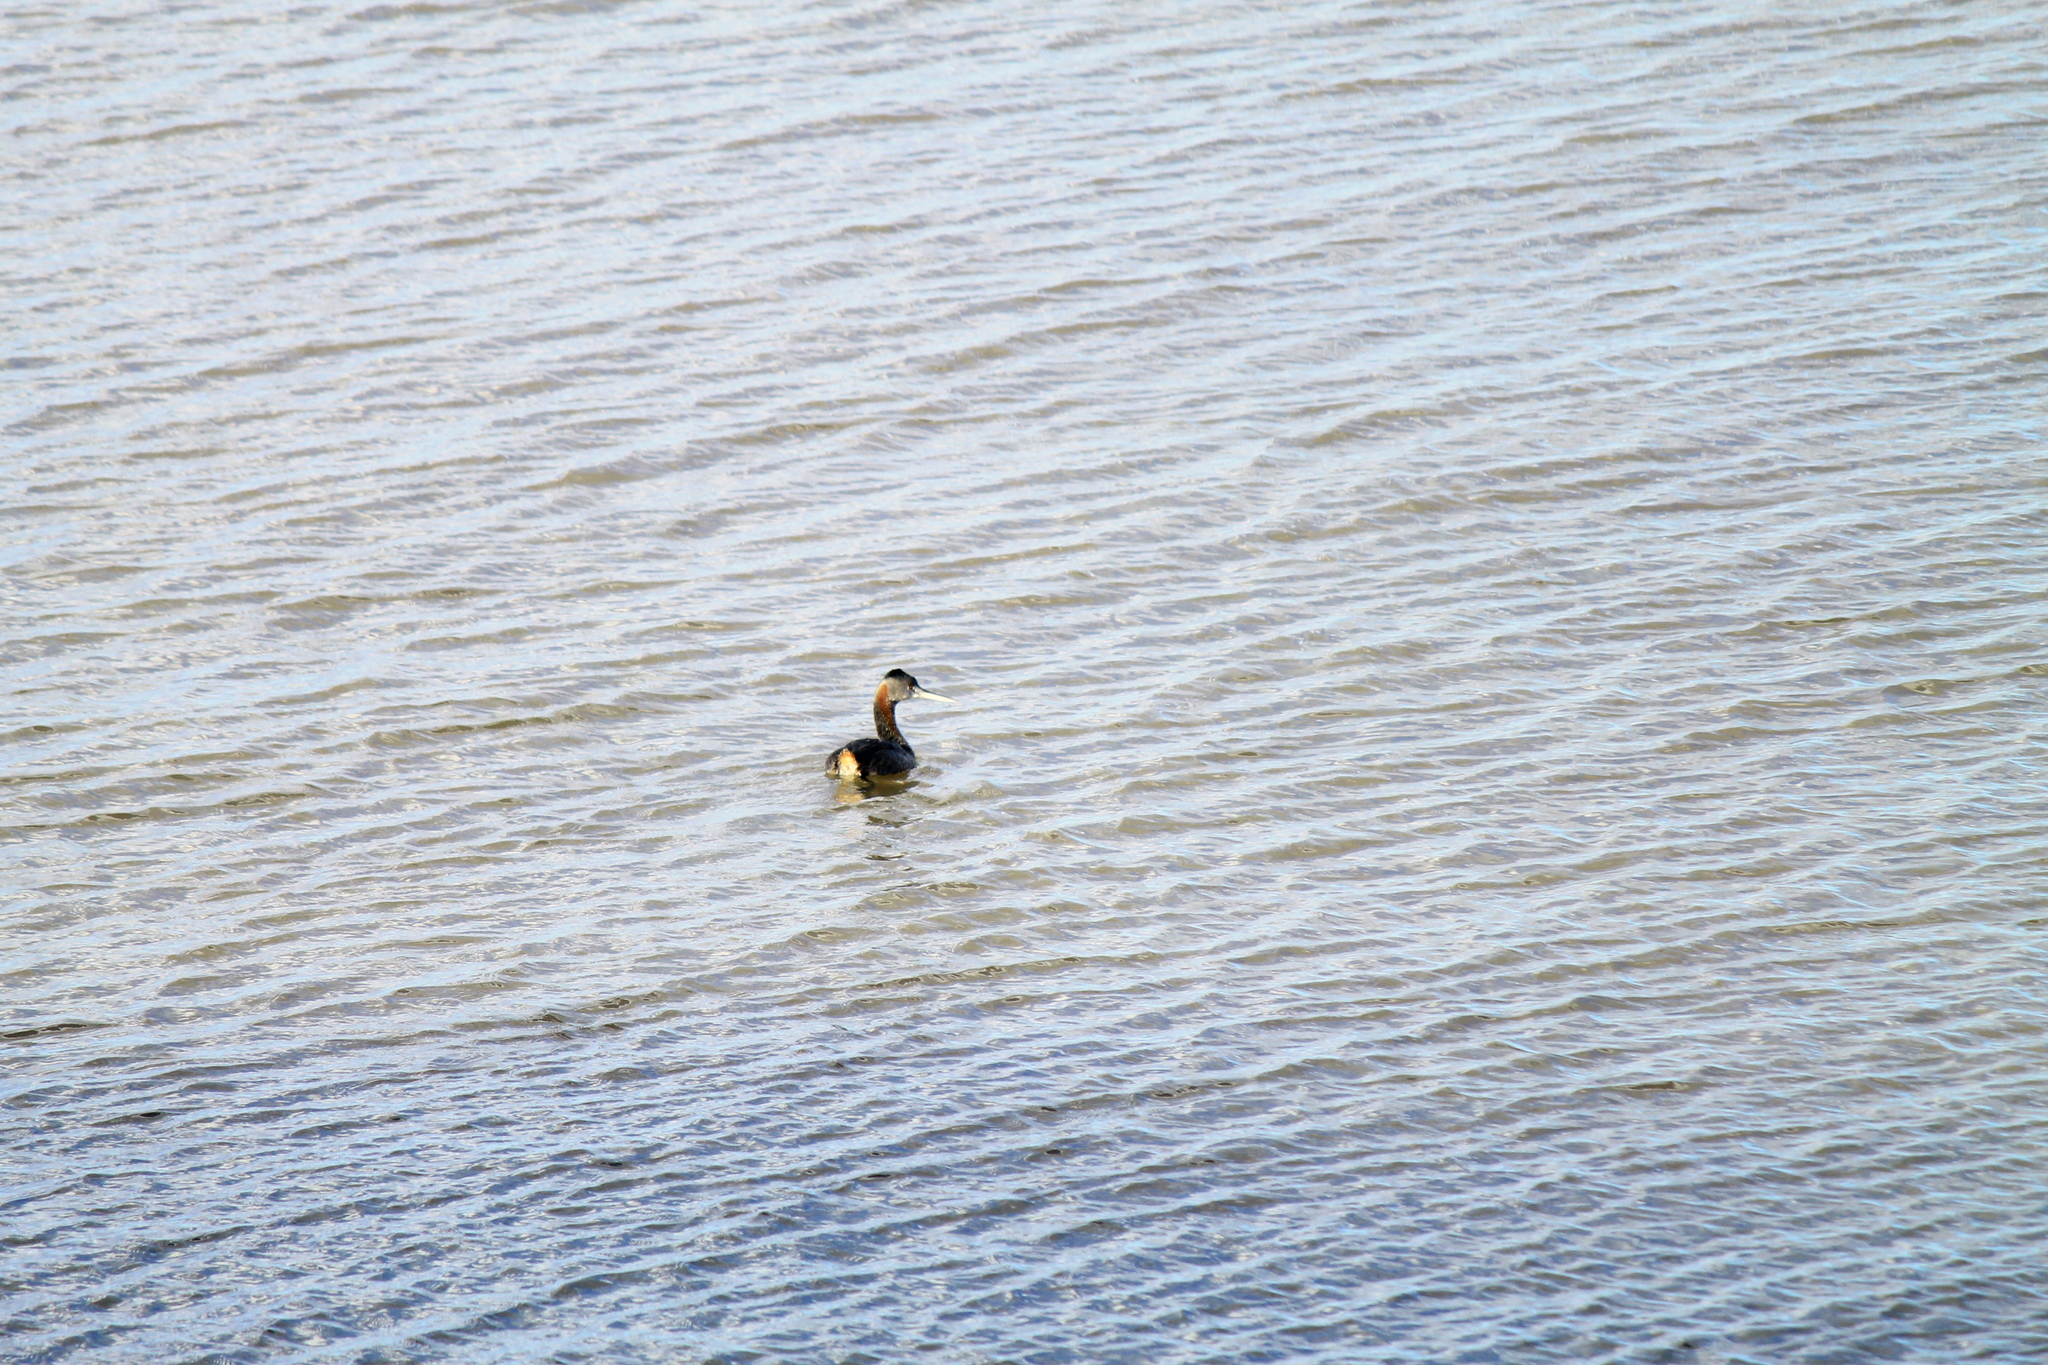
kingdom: Animalia
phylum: Chordata
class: Aves
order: Podicipediformes
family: Podicipedidae
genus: Podiceps
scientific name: Podiceps major
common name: Great grebe
